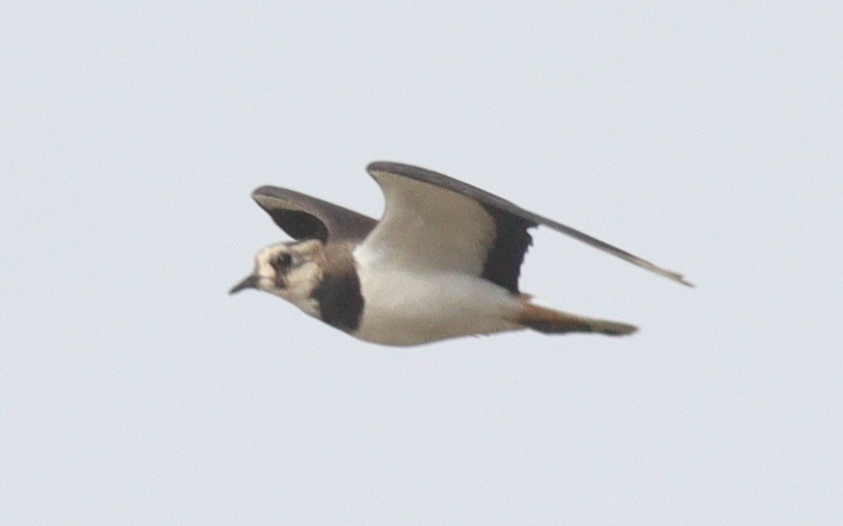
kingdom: Animalia
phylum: Chordata
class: Aves
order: Charadriiformes
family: Charadriidae
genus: Vanellus
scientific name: Vanellus vanellus
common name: Northern lapwing
